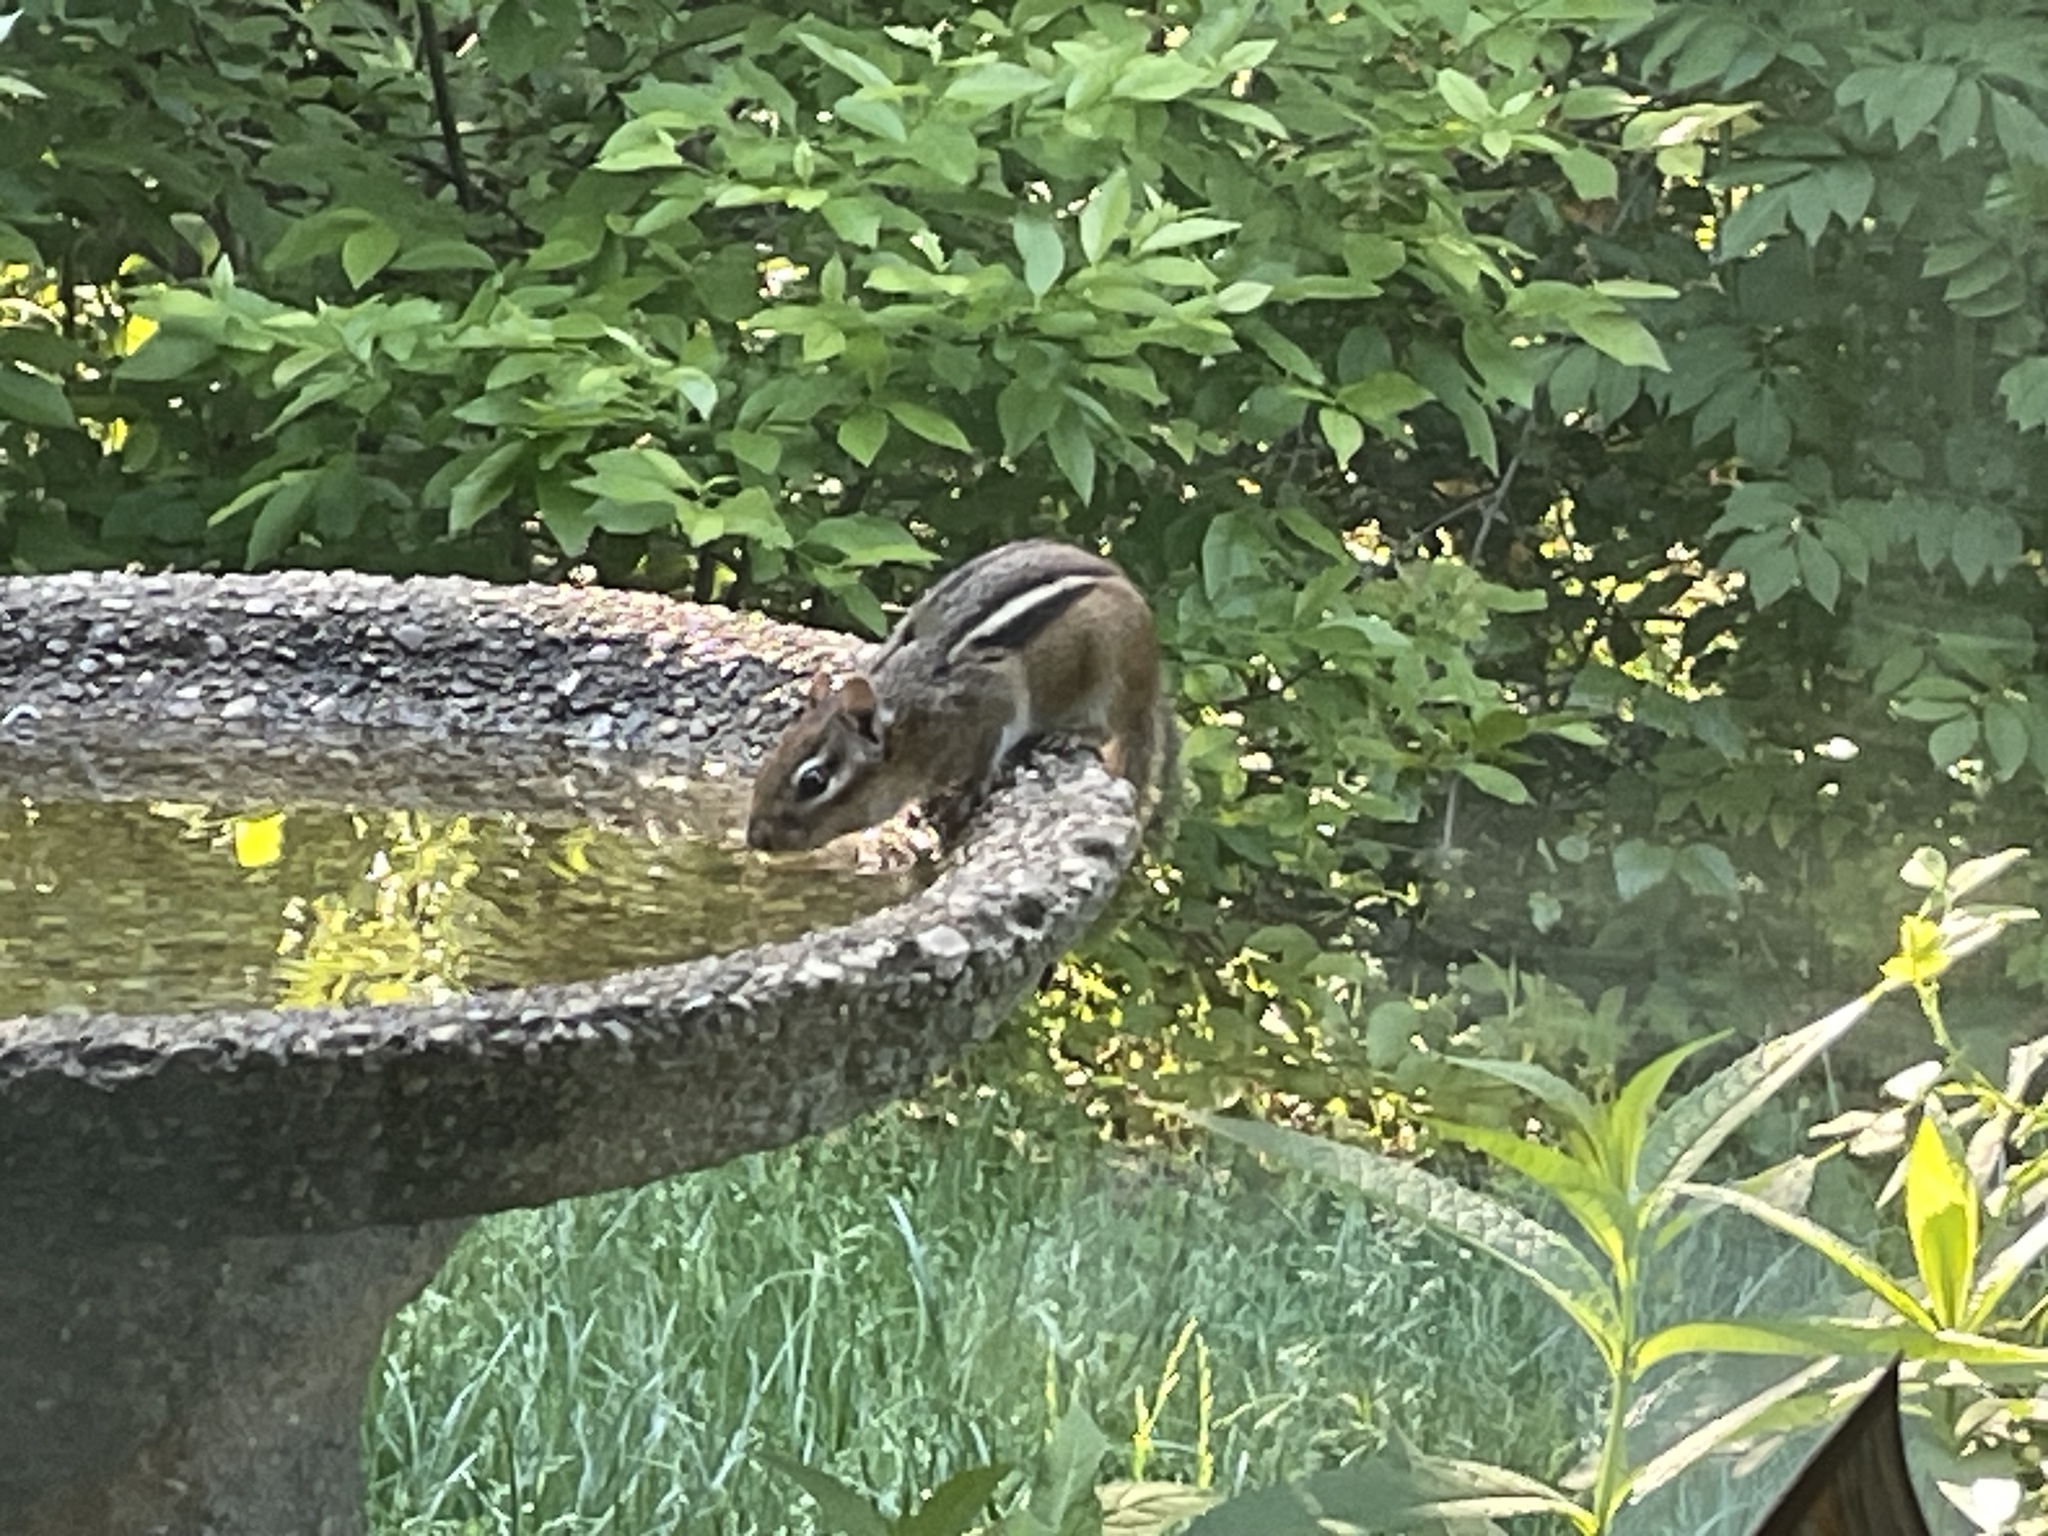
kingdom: Animalia
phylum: Chordata
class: Mammalia
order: Rodentia
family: Sciuridae
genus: Tamias
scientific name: Tamias striatus
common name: Eastern chipmunk
